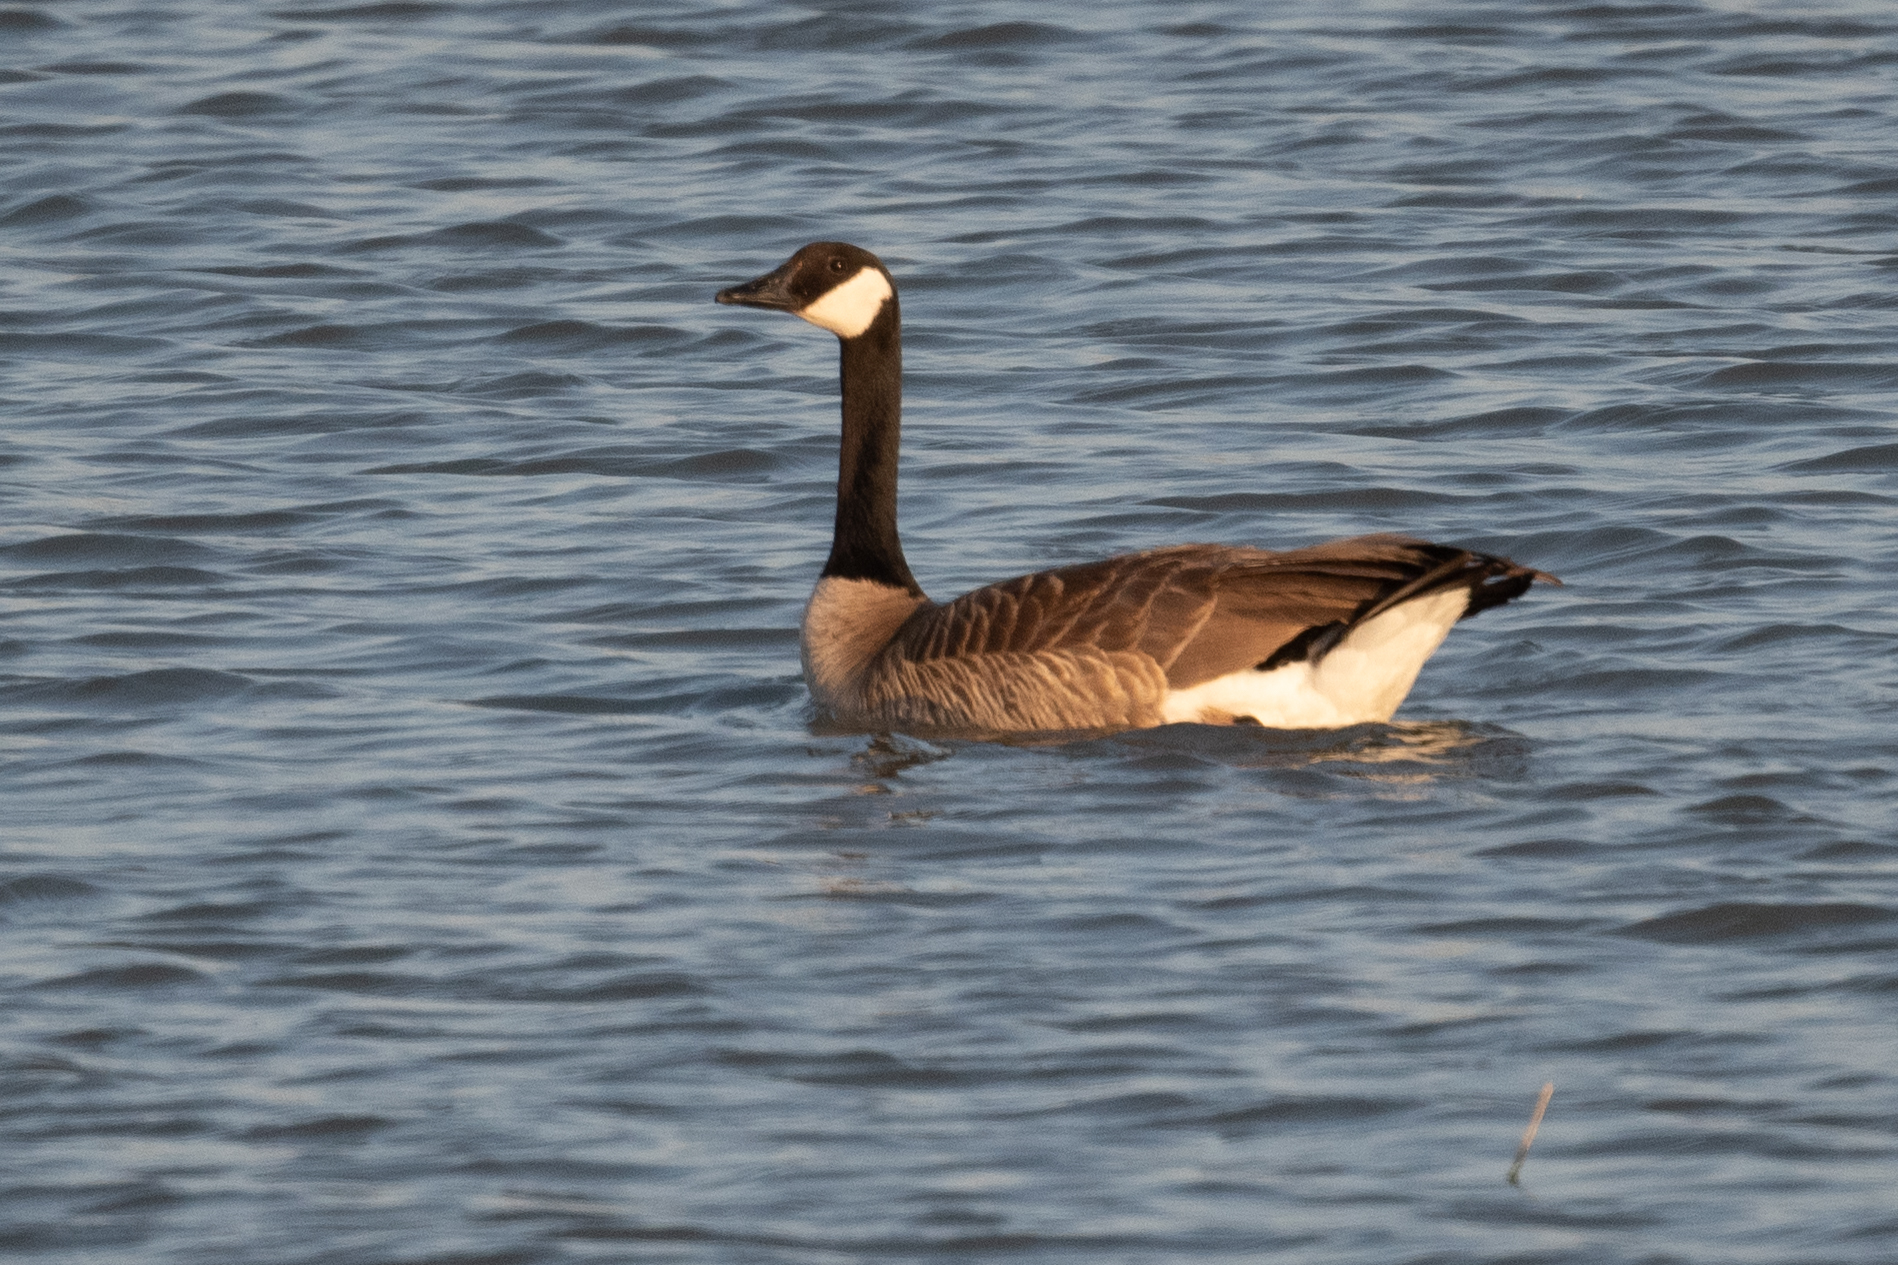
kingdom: Animalia
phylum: Chordata
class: Aves
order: Anseriformes
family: Anatidae
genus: Branta
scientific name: Branta canadensis
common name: Canada goose
